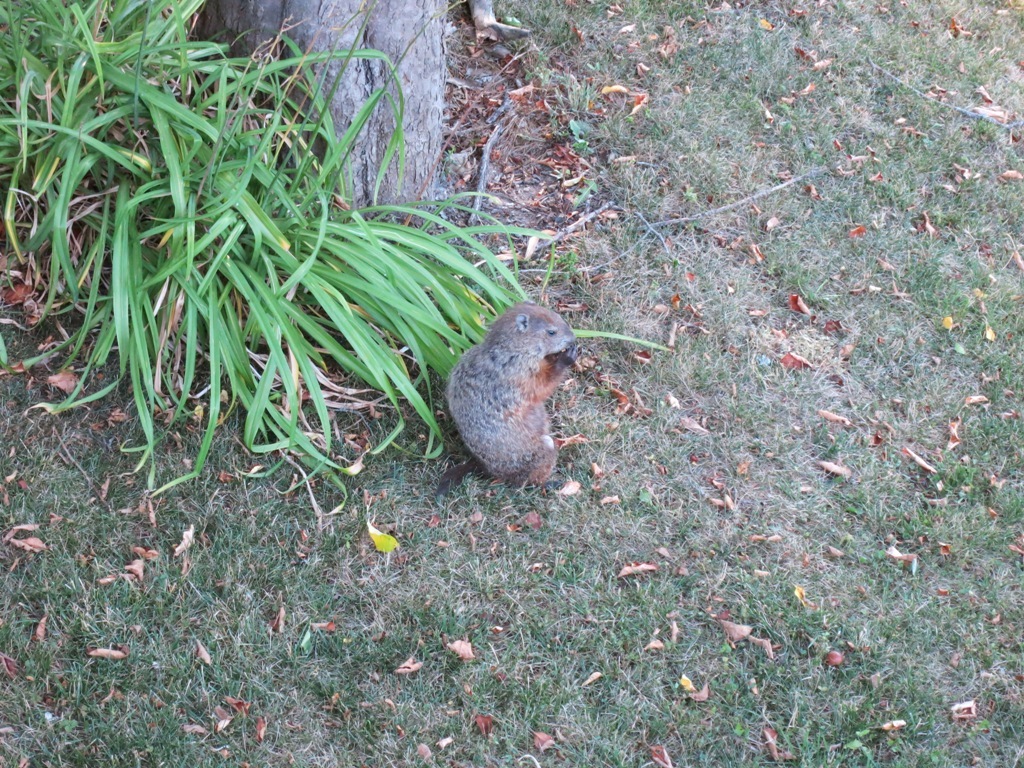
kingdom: Animalia
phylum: Chordata
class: Mammalia
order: Rodentia
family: Sciuridae
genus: Marmota
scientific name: Marmota monax
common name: Groundhog
